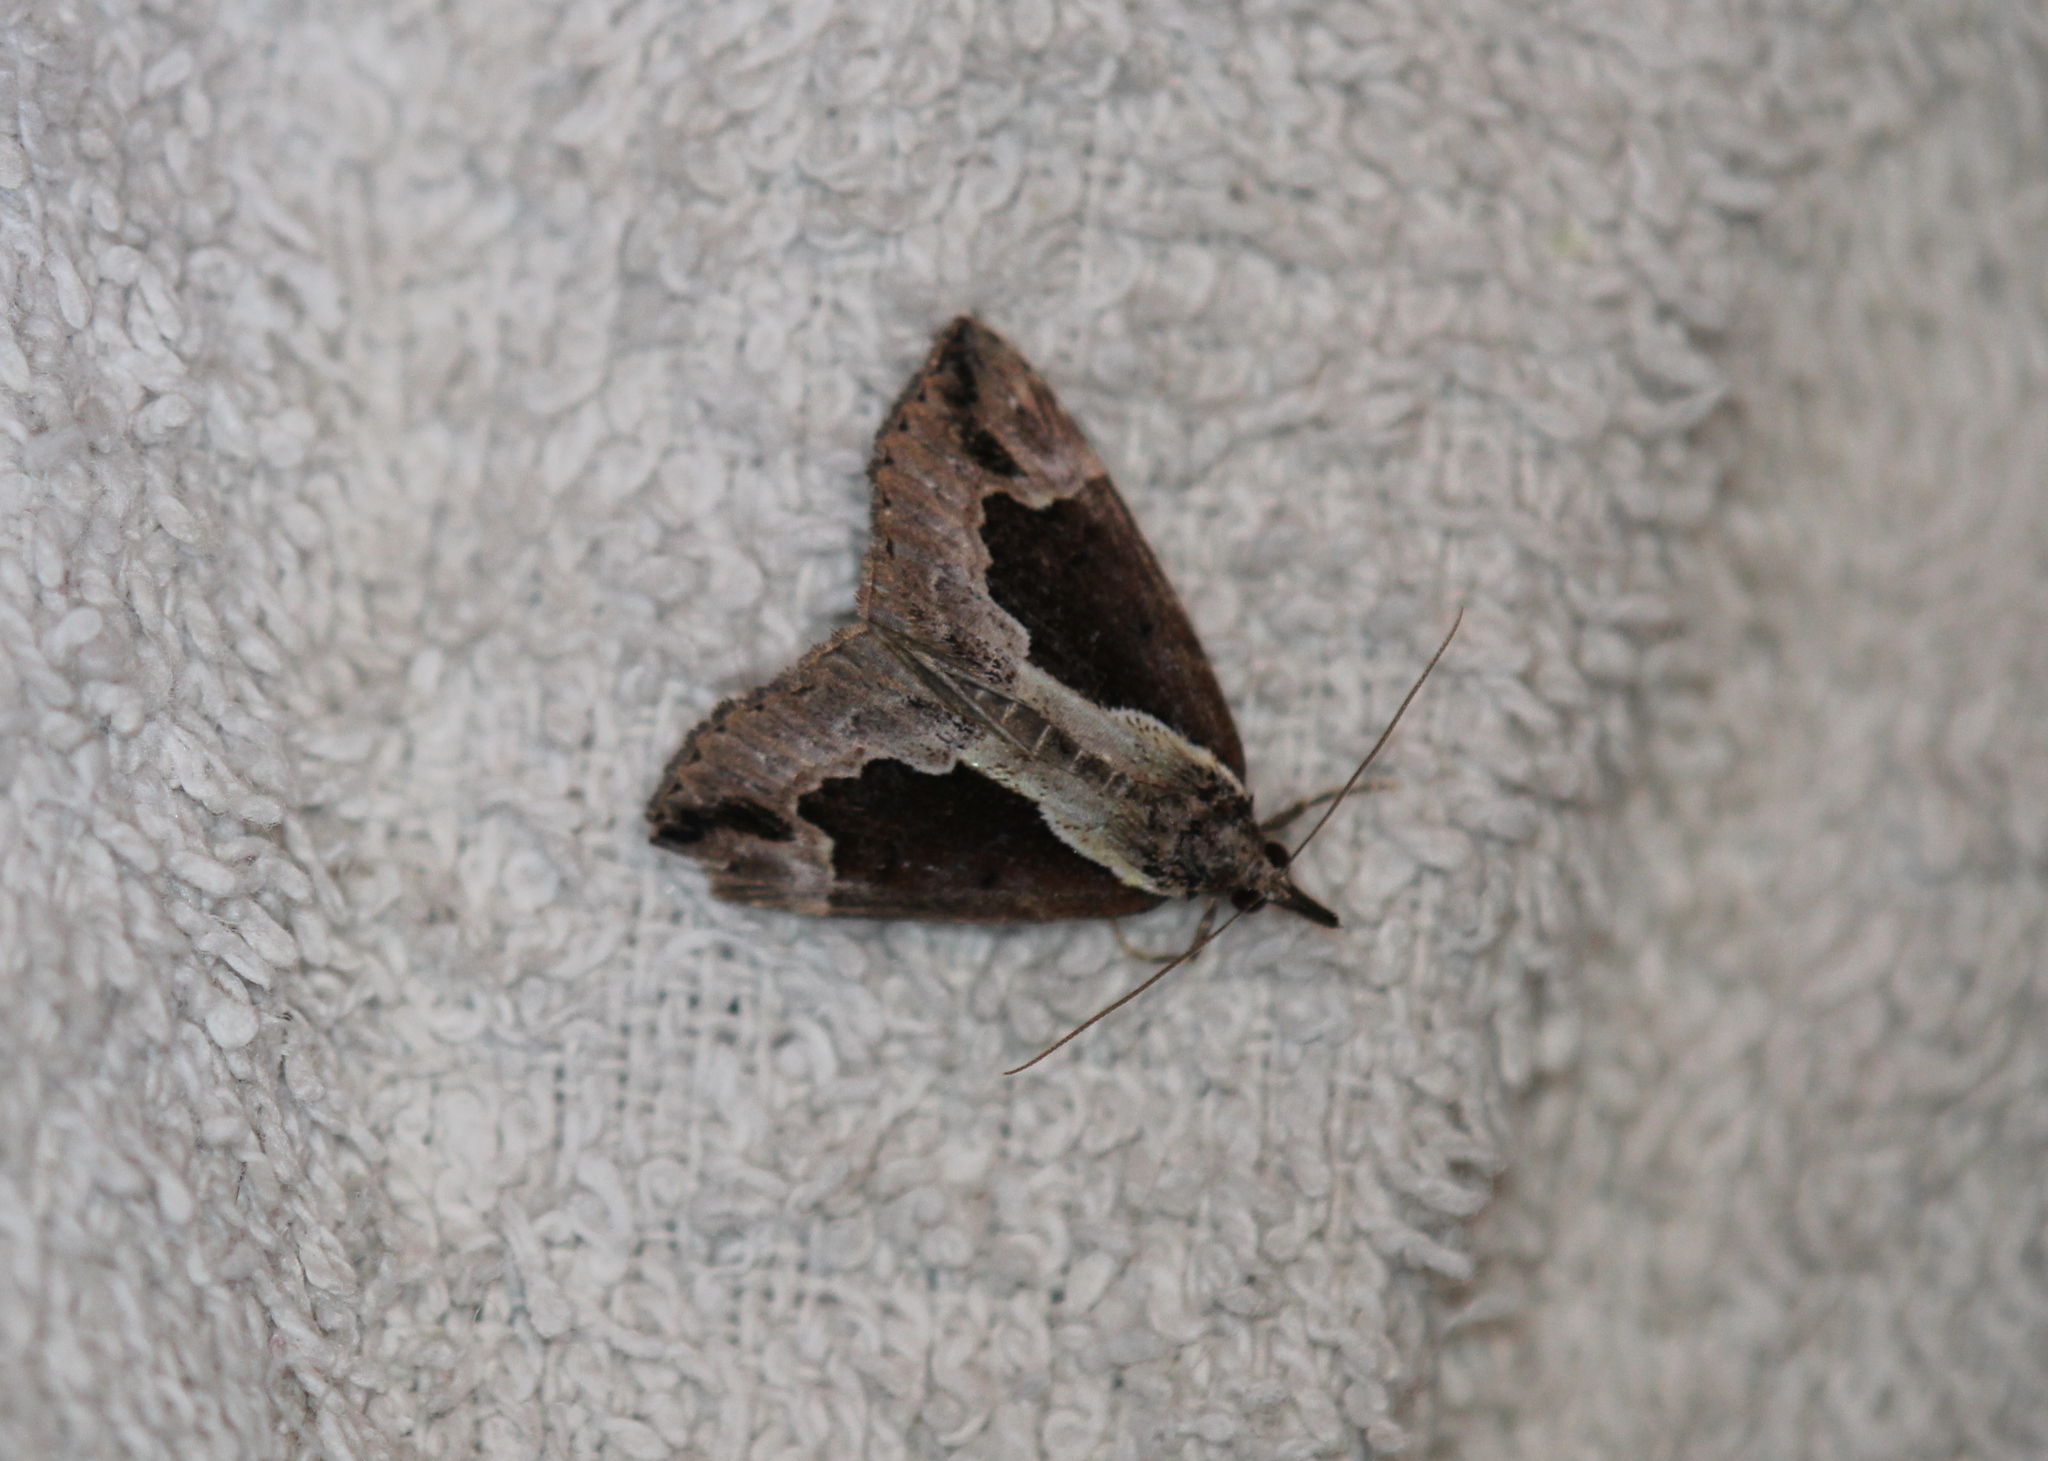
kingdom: Animalia
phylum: Arthropoda
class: Insecta
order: Lepidoptera
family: Erebidae
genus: Hypena
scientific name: Hypena baltimoralis
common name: Baltimore snout
